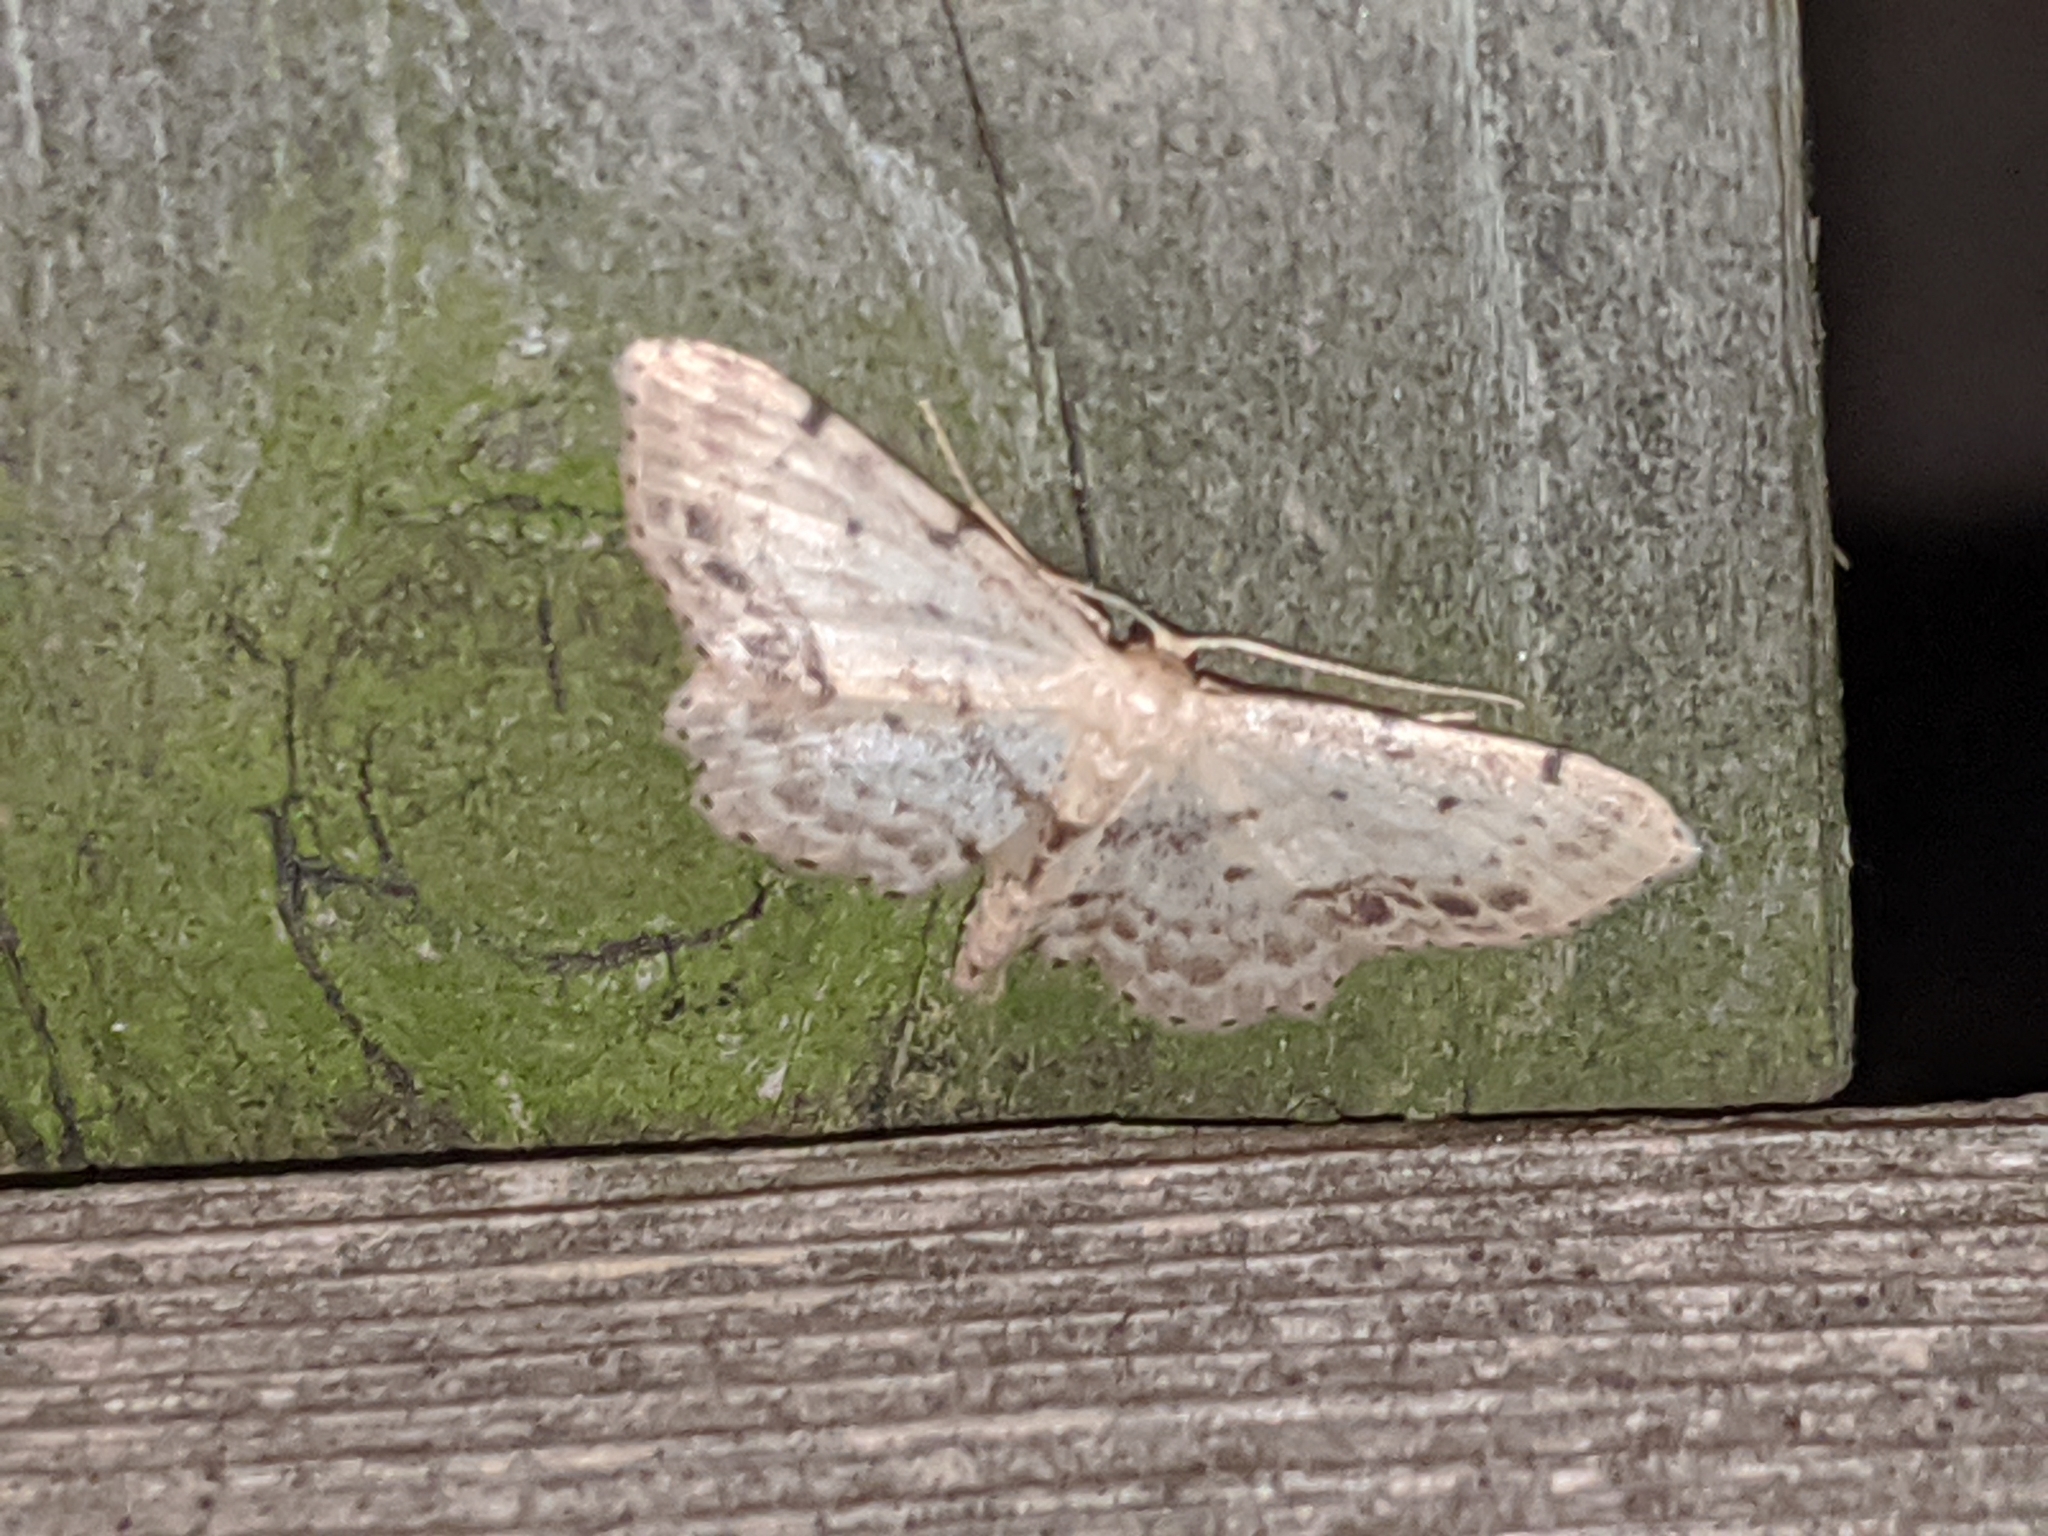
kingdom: Animalia
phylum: Arthropoda
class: Insecta
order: Lepidoptera
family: Geometridae
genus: Idaea
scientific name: Idaea dimidiata
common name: Single-dotted wave
